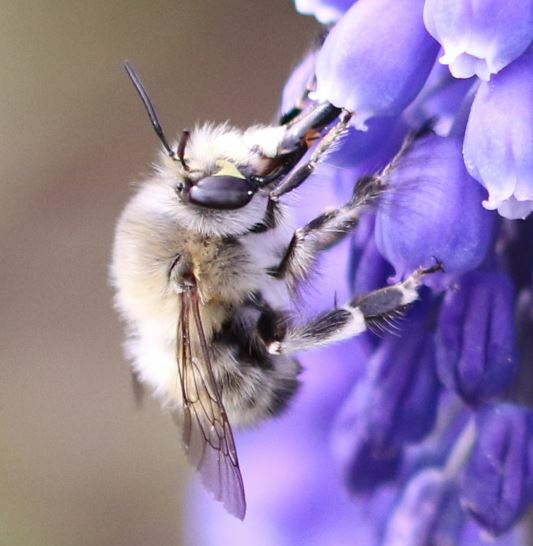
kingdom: Animalia
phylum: Arthropoda
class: Insecta
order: Hymenoptera
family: Apidae
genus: Anthophora
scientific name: Anthophora plumipes
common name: Hairy-footed flower bee
